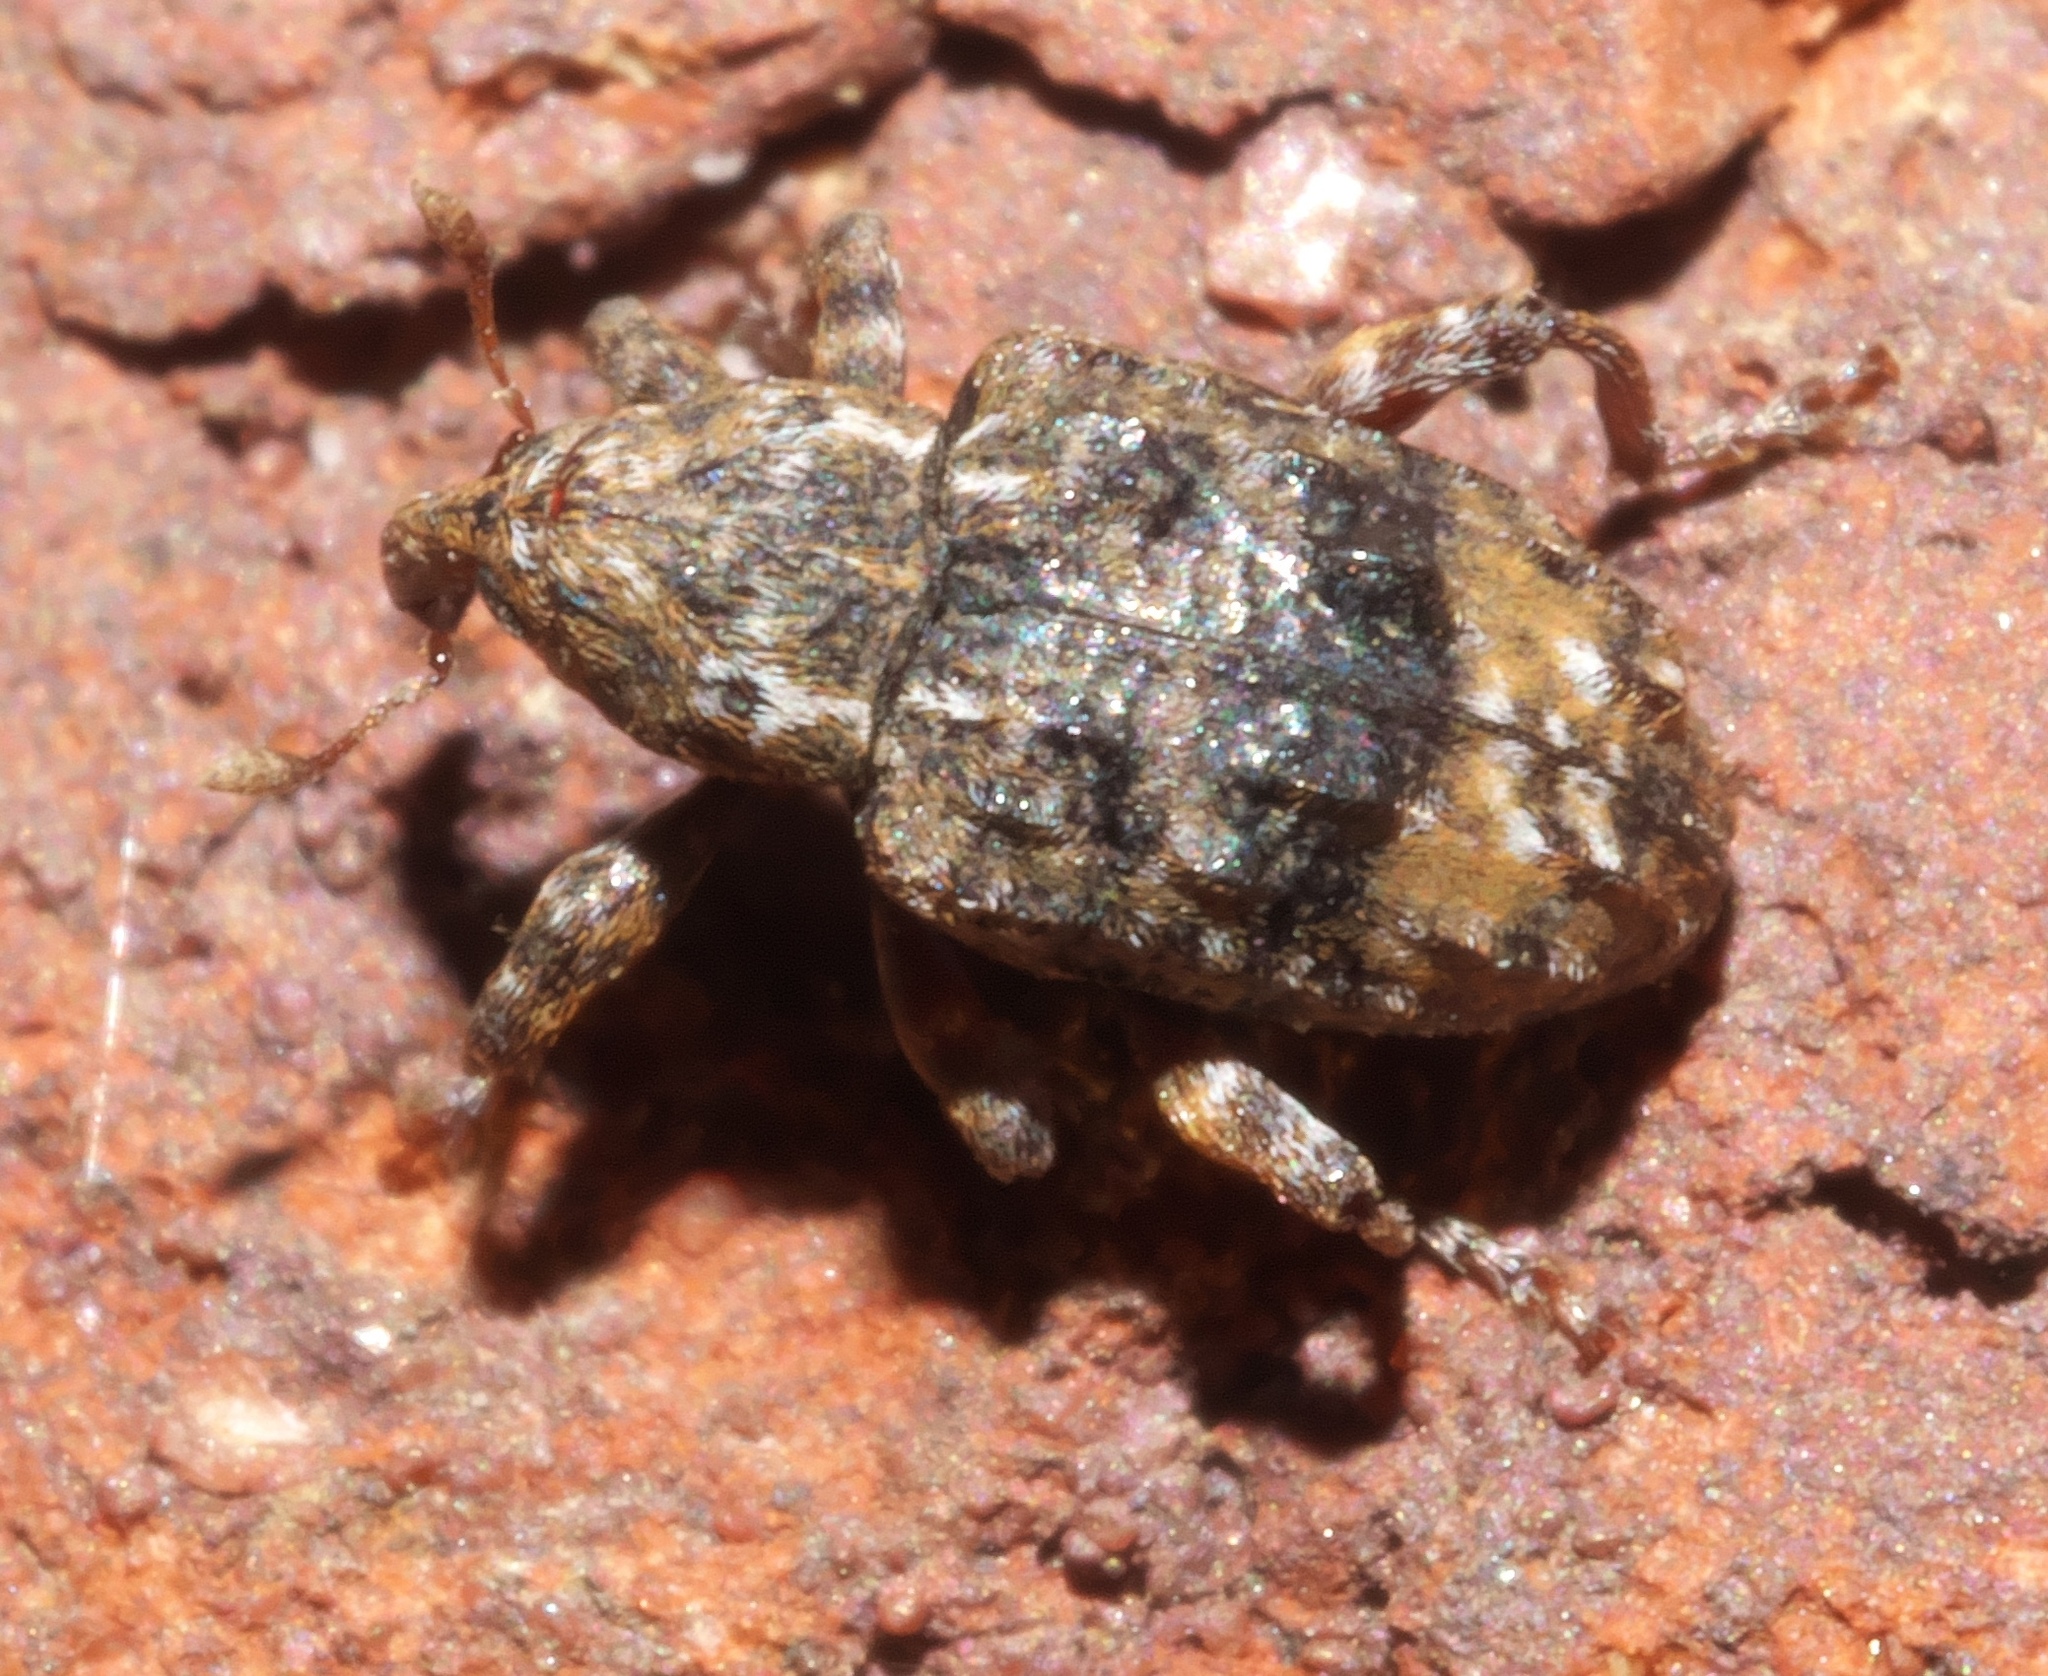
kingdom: Animalia
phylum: Arthropoda
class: Insecta
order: Coleoptera
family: Curculionidae
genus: Conotrachelus
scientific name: Conotrachelus nenuphar
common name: Plum curculio
